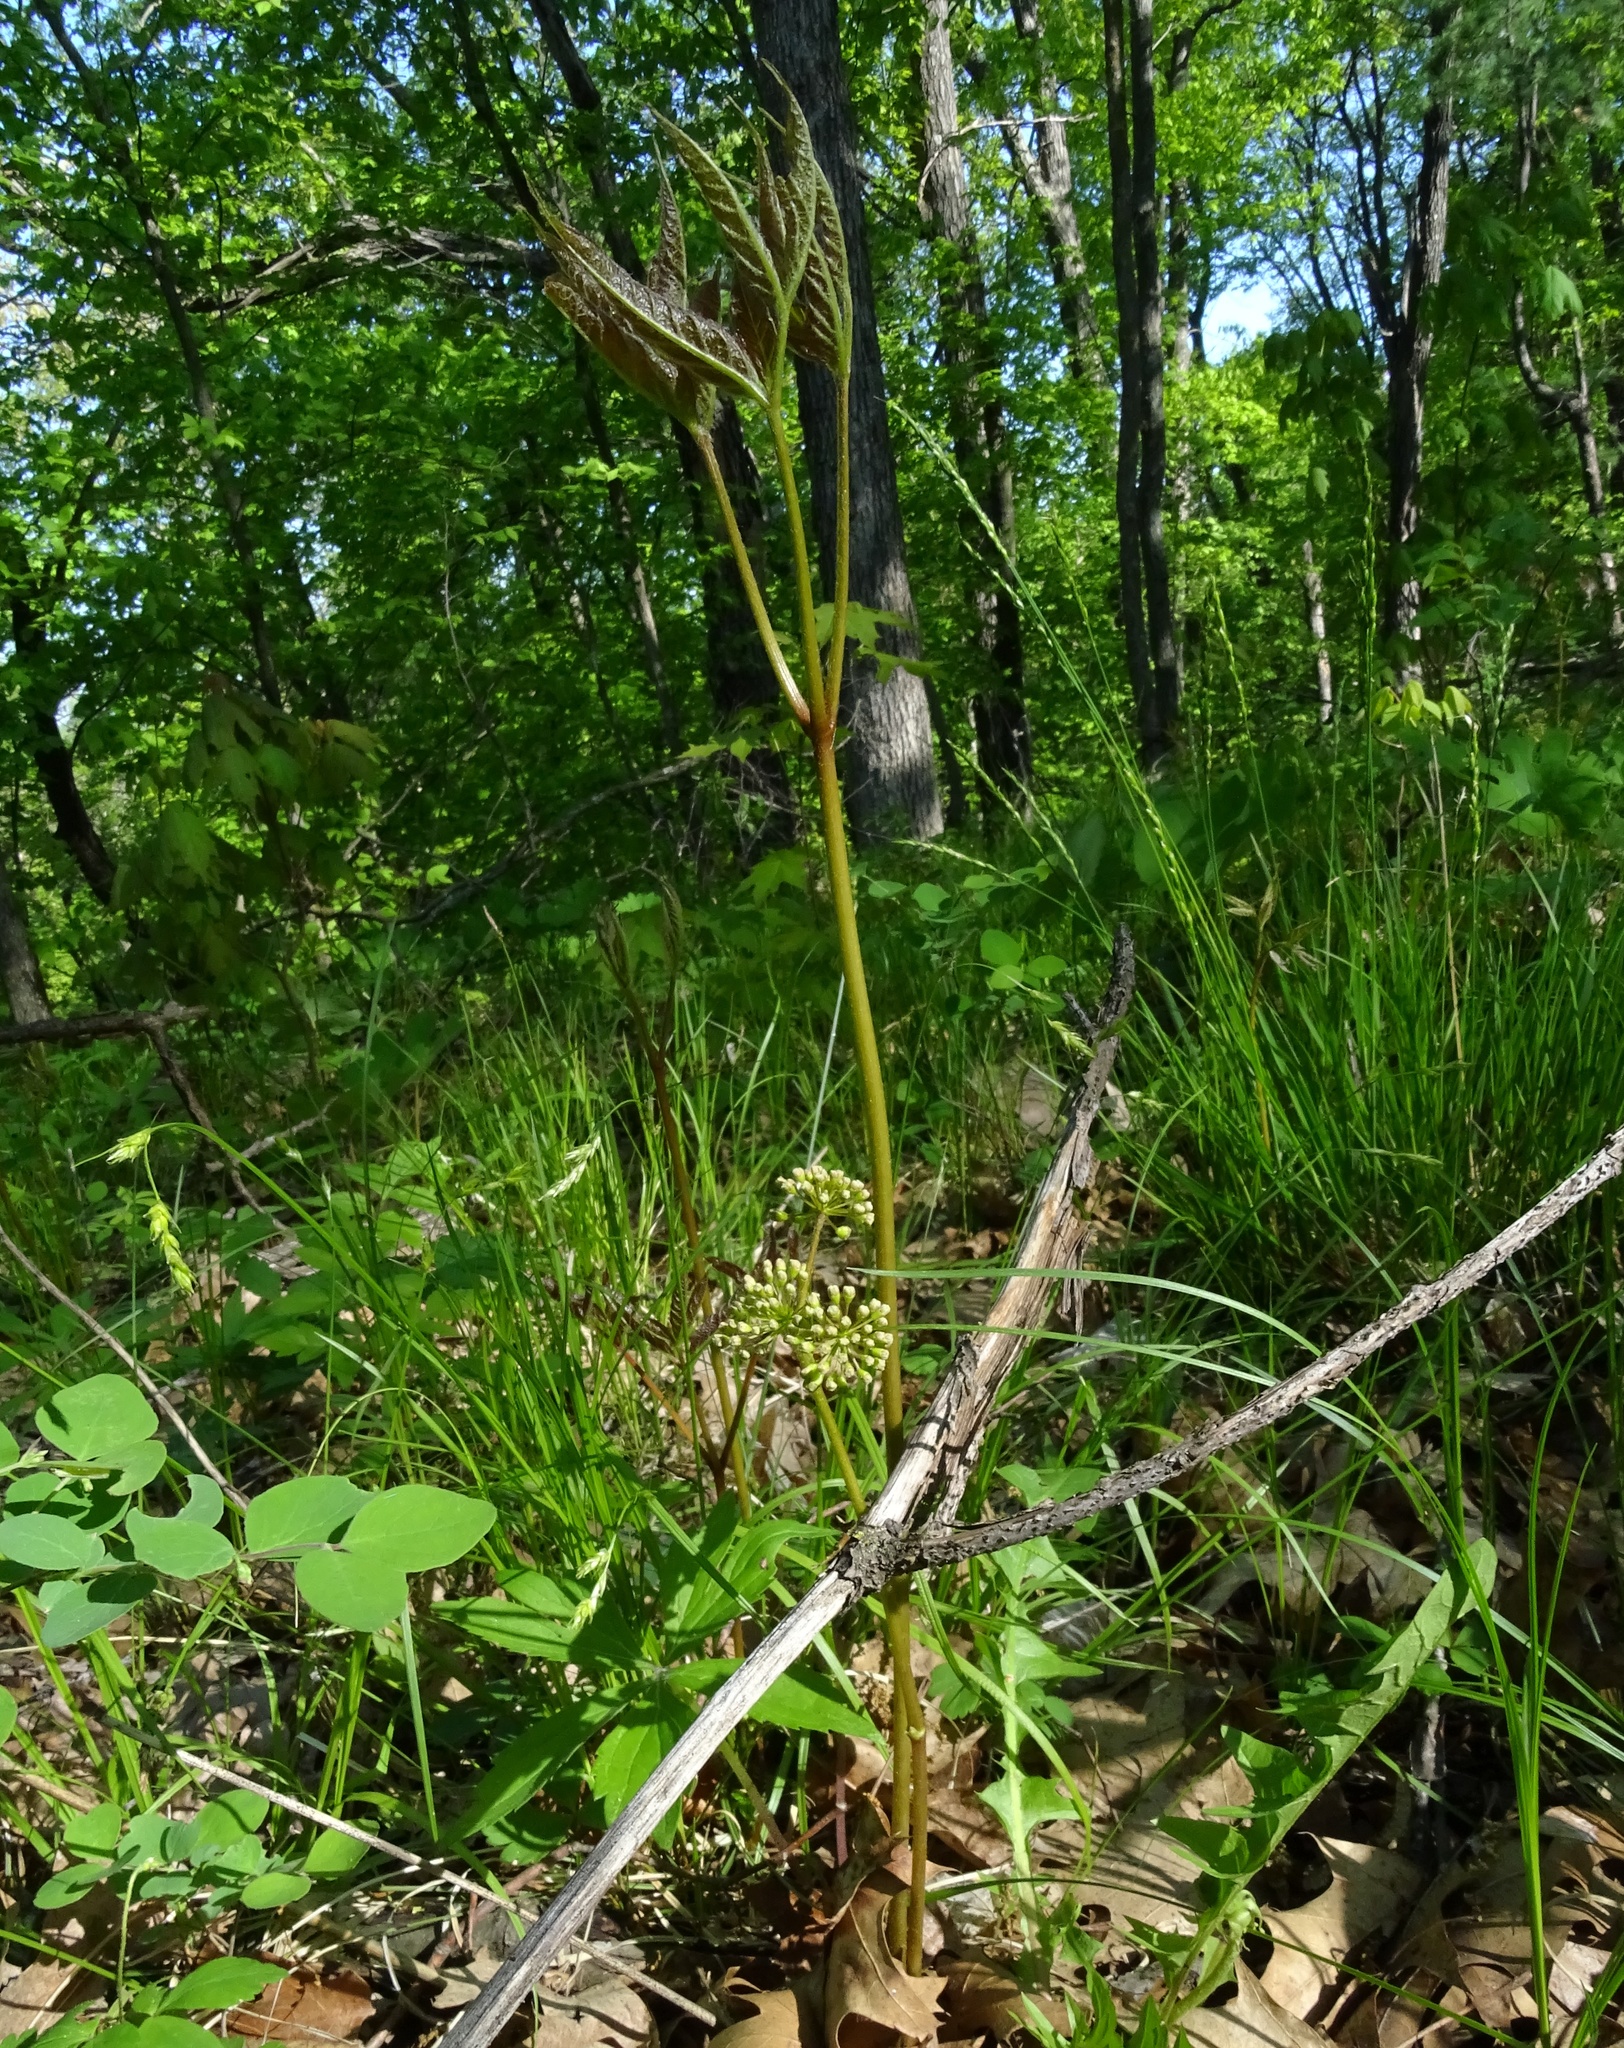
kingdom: Plantae
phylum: Tracheophyta
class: Magnoliopsida
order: Apiales
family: Araliaceae
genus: Aralia
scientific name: Aralia nudicaulis
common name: Wild sarsaparilla
